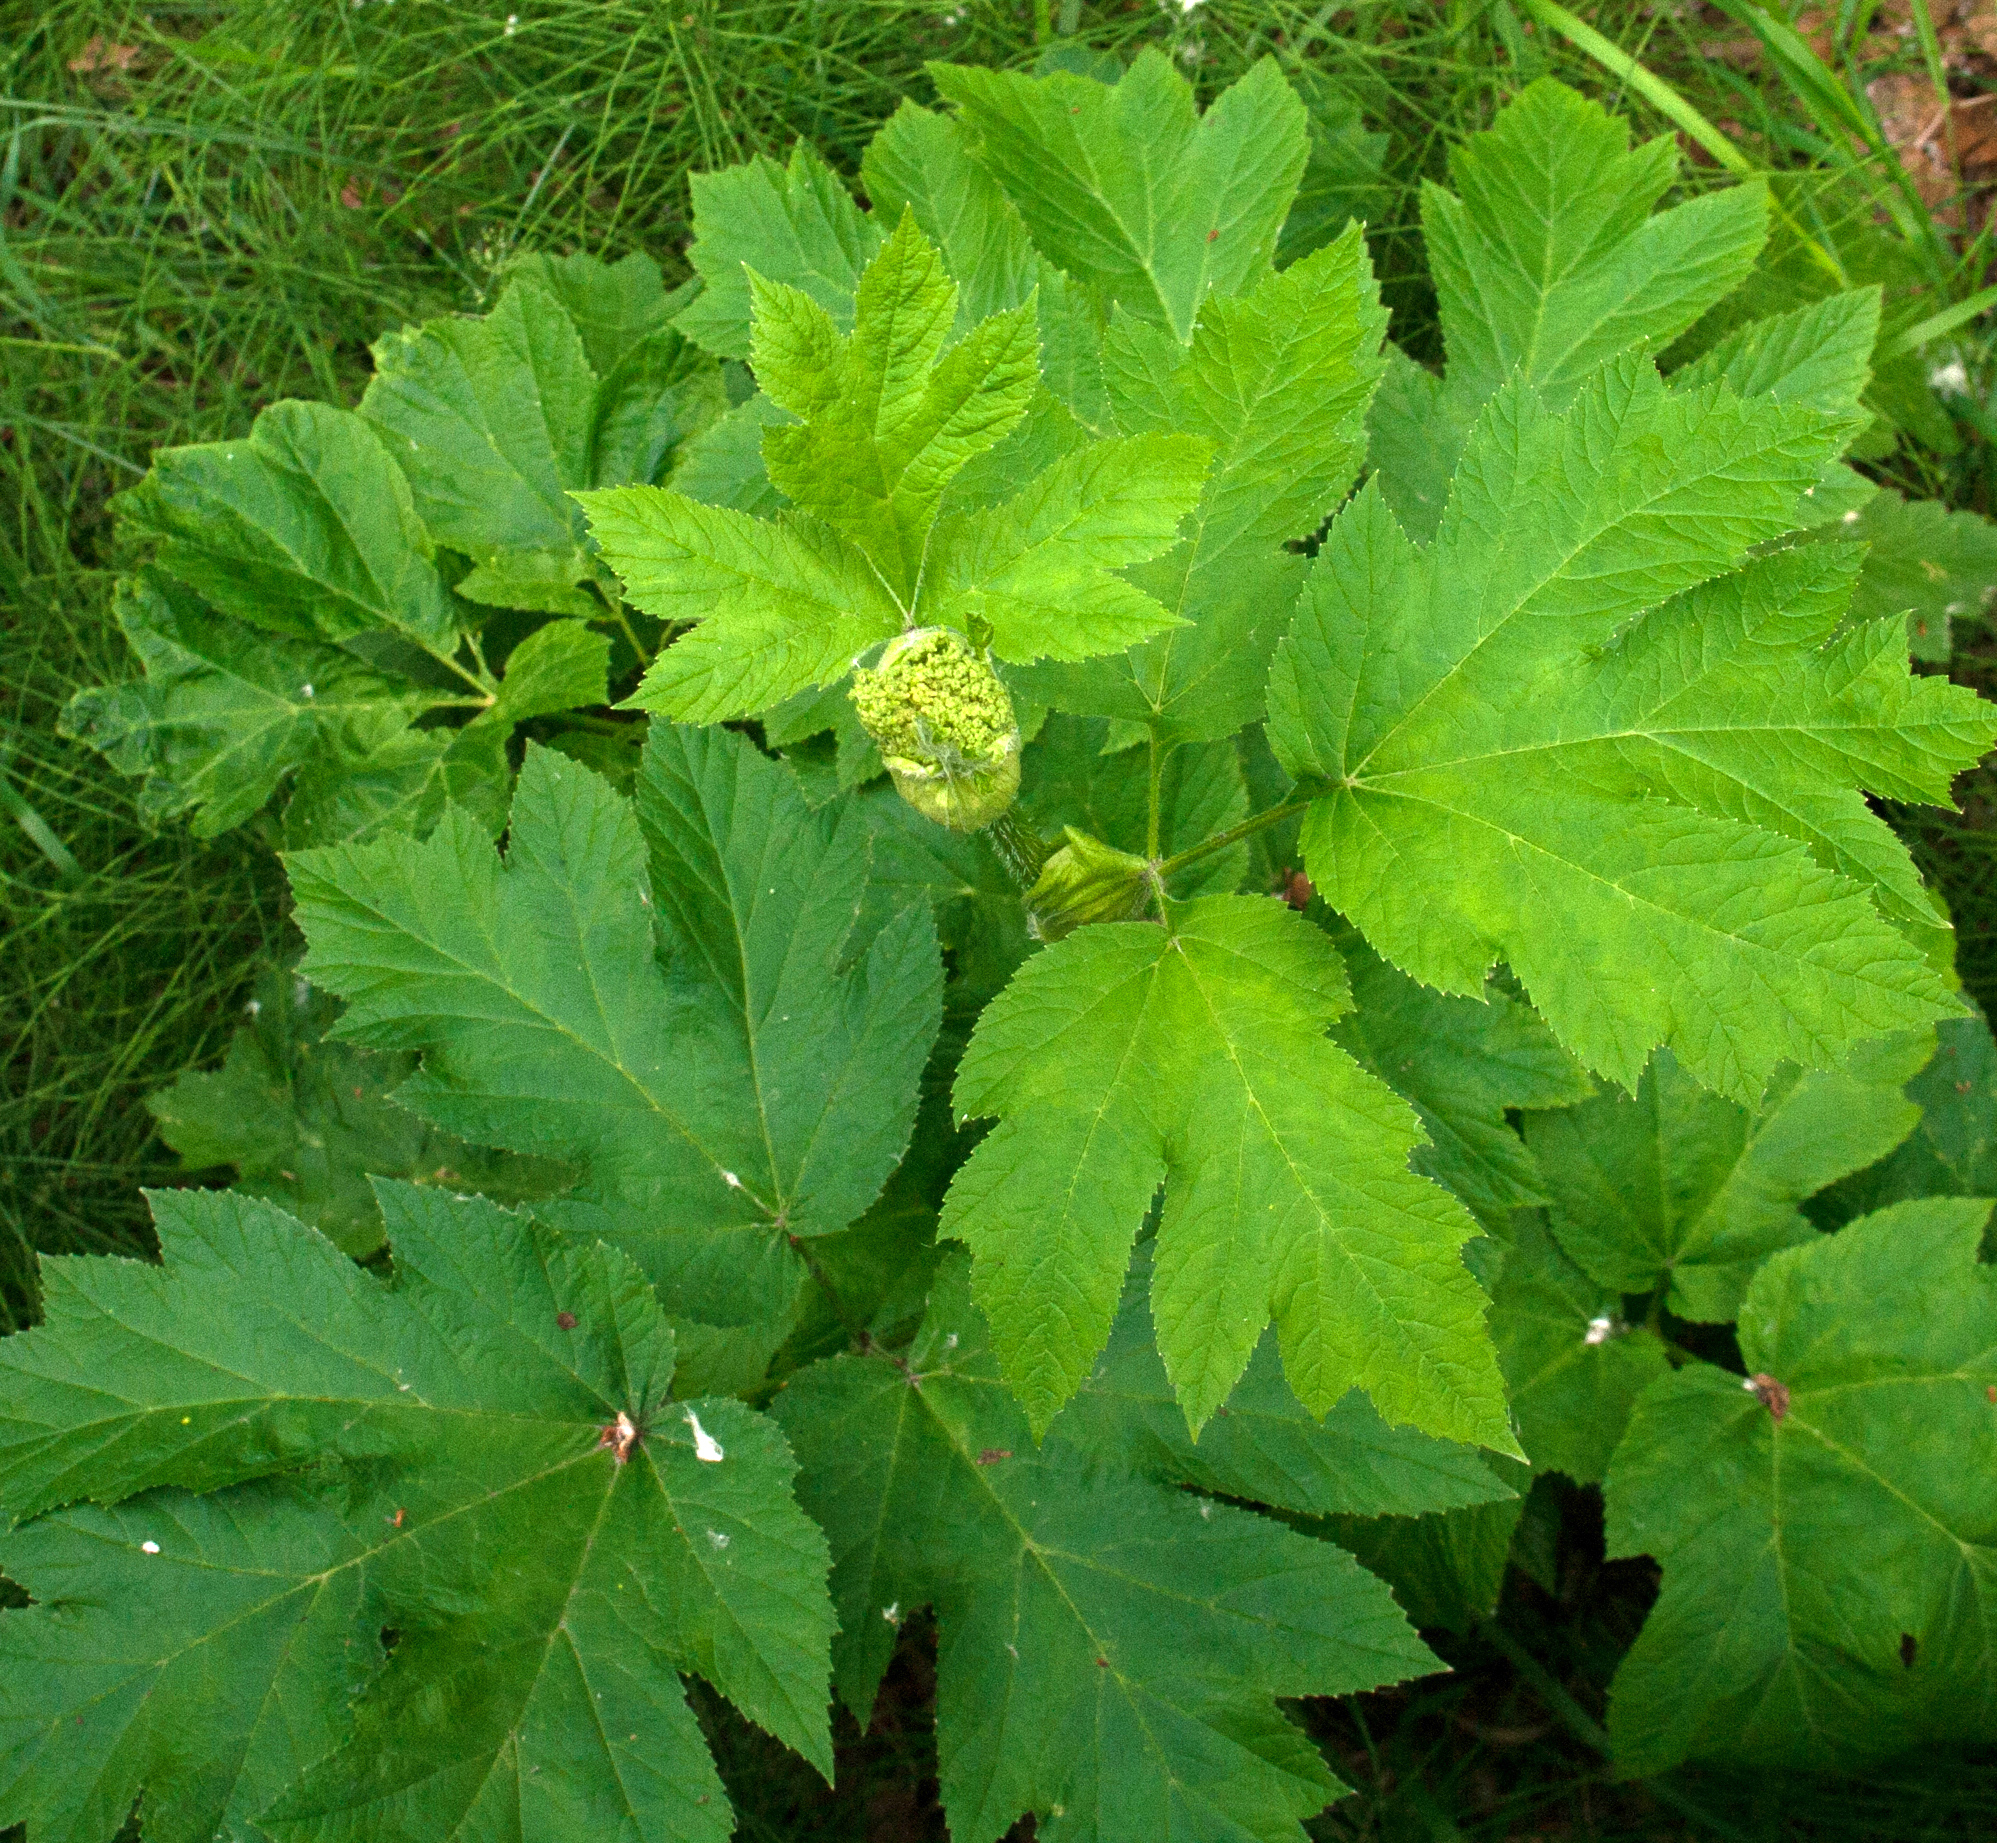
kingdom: Plantae
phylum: Tracheophyta
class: Magnoliopsida
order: Apiales
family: Apiaceae
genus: Heracleum
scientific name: Heracleum maximum
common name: American cow parsnip
